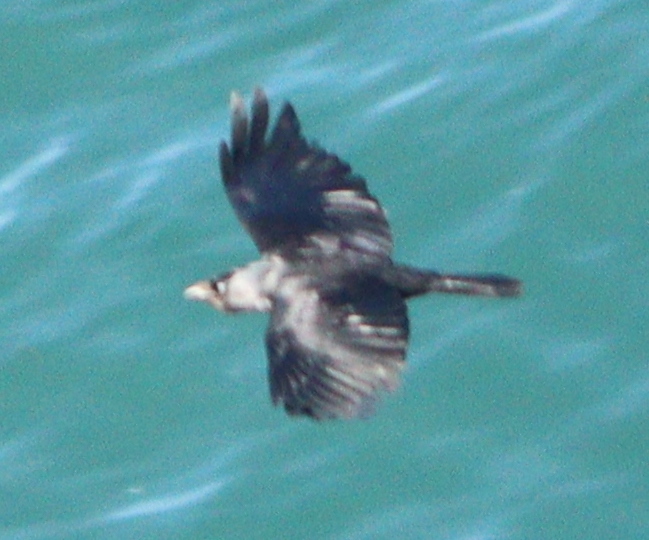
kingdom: Animalia
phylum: Chordata
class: Aves
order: Passeriformes
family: Corvidae
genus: Coloeus
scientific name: Coloeus monedula
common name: Western jackdaw
